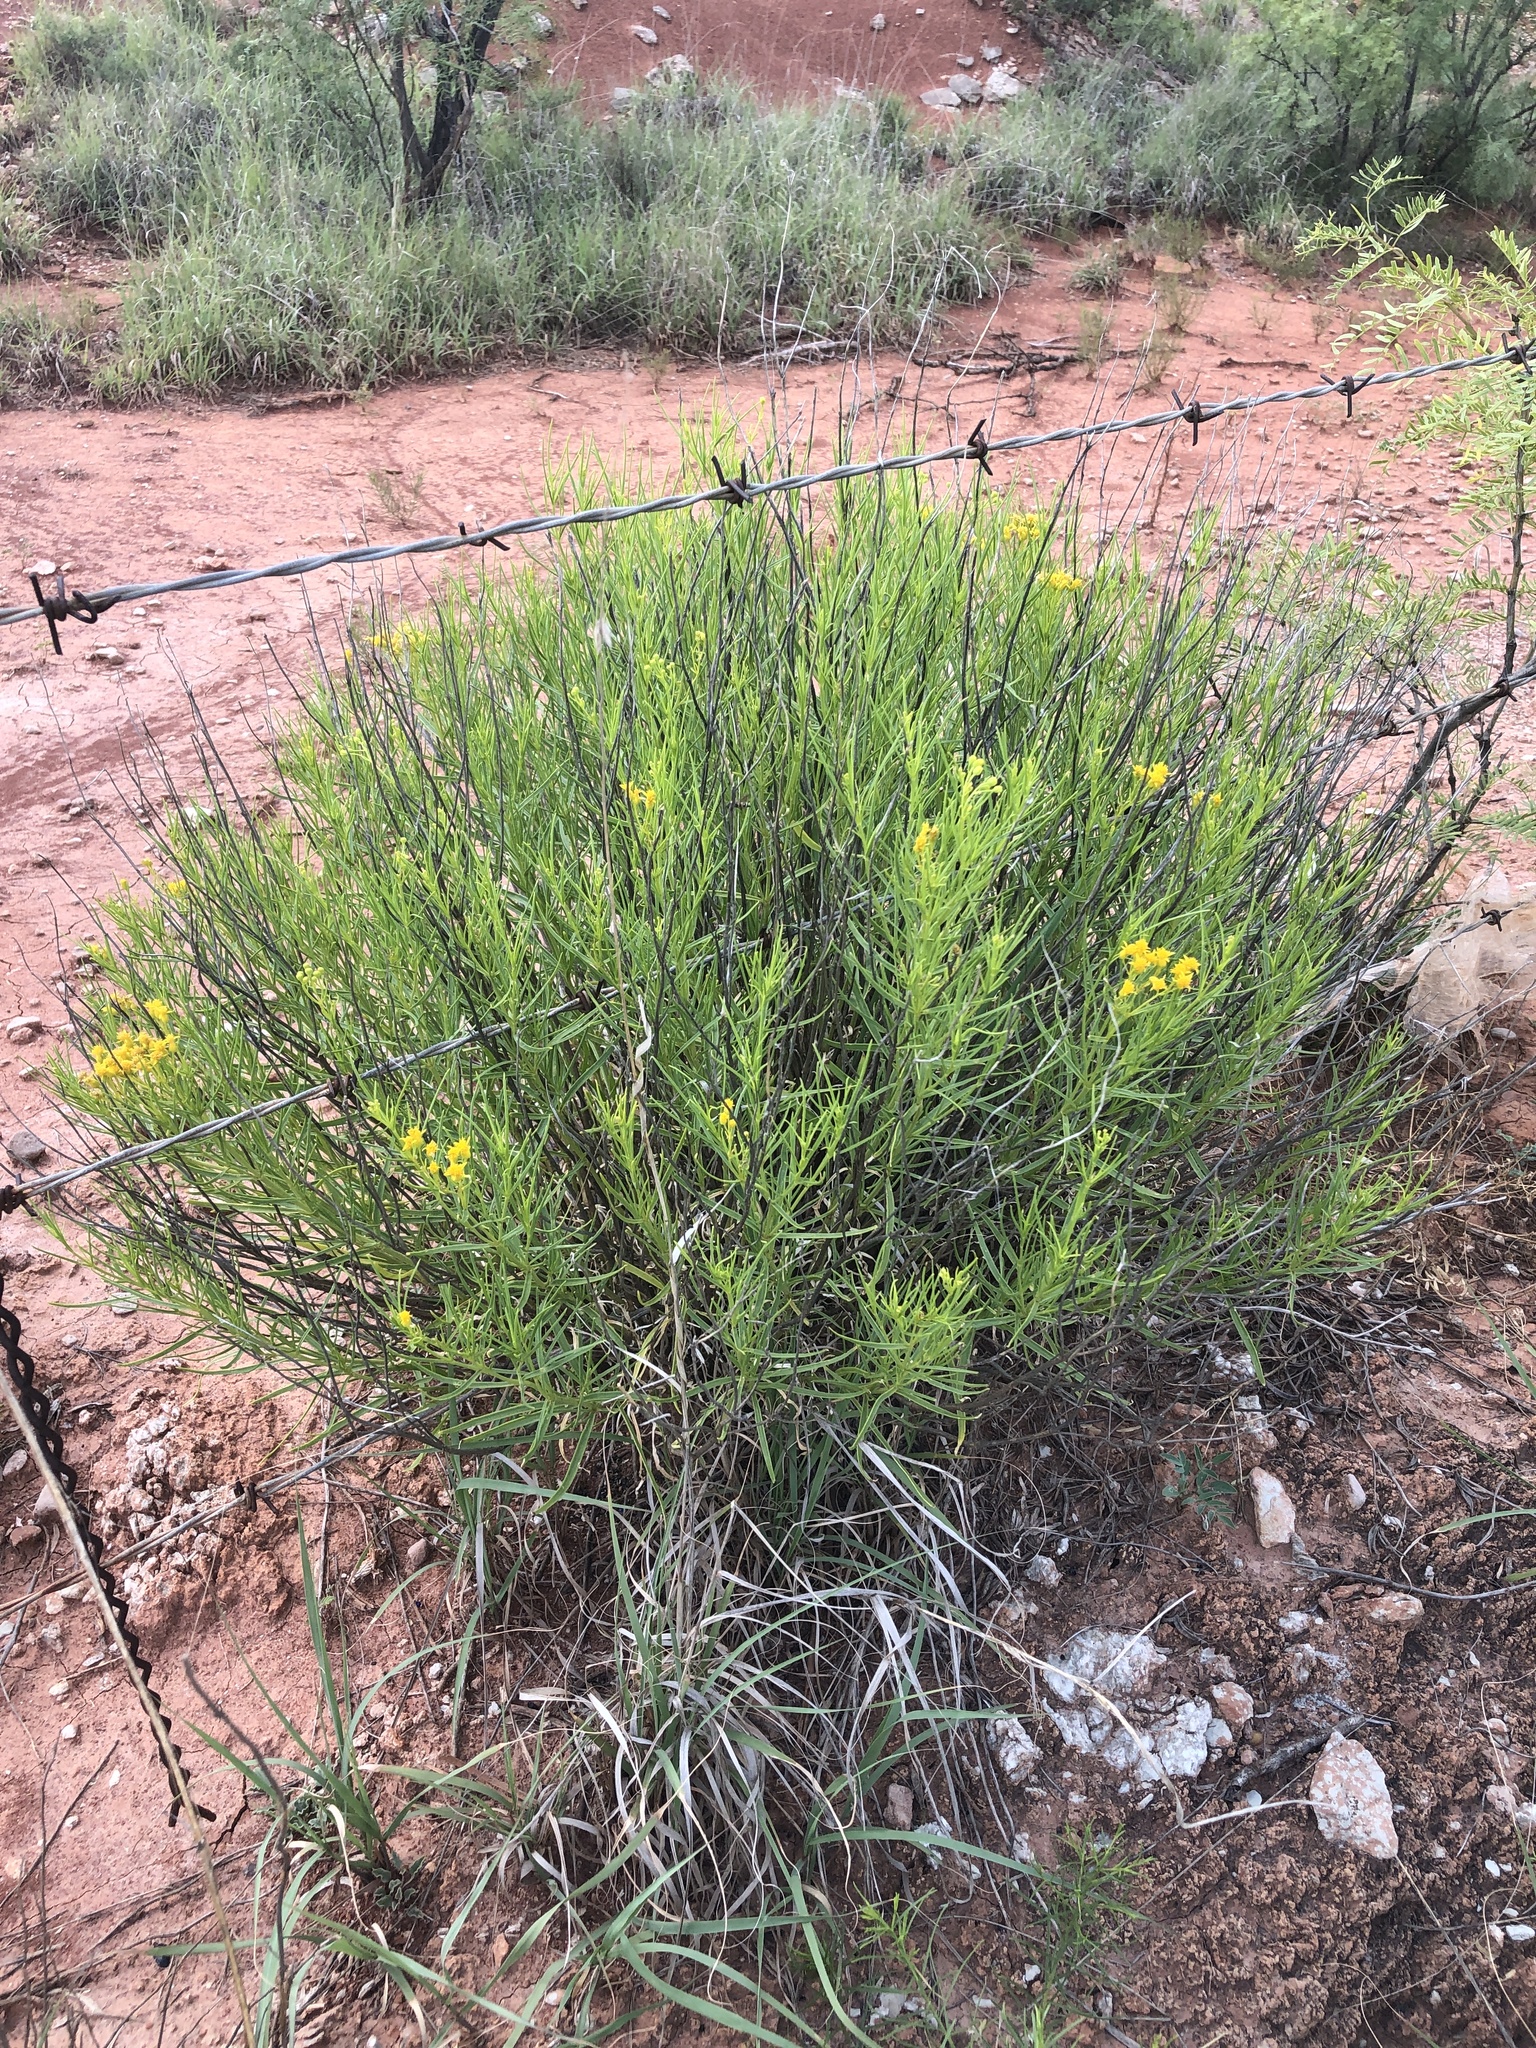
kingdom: Plantae
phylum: Tracheophyta
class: Magnoliopsida
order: Asterales
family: Asteraceae
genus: Haploesthes
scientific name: Haploesthes greggii
